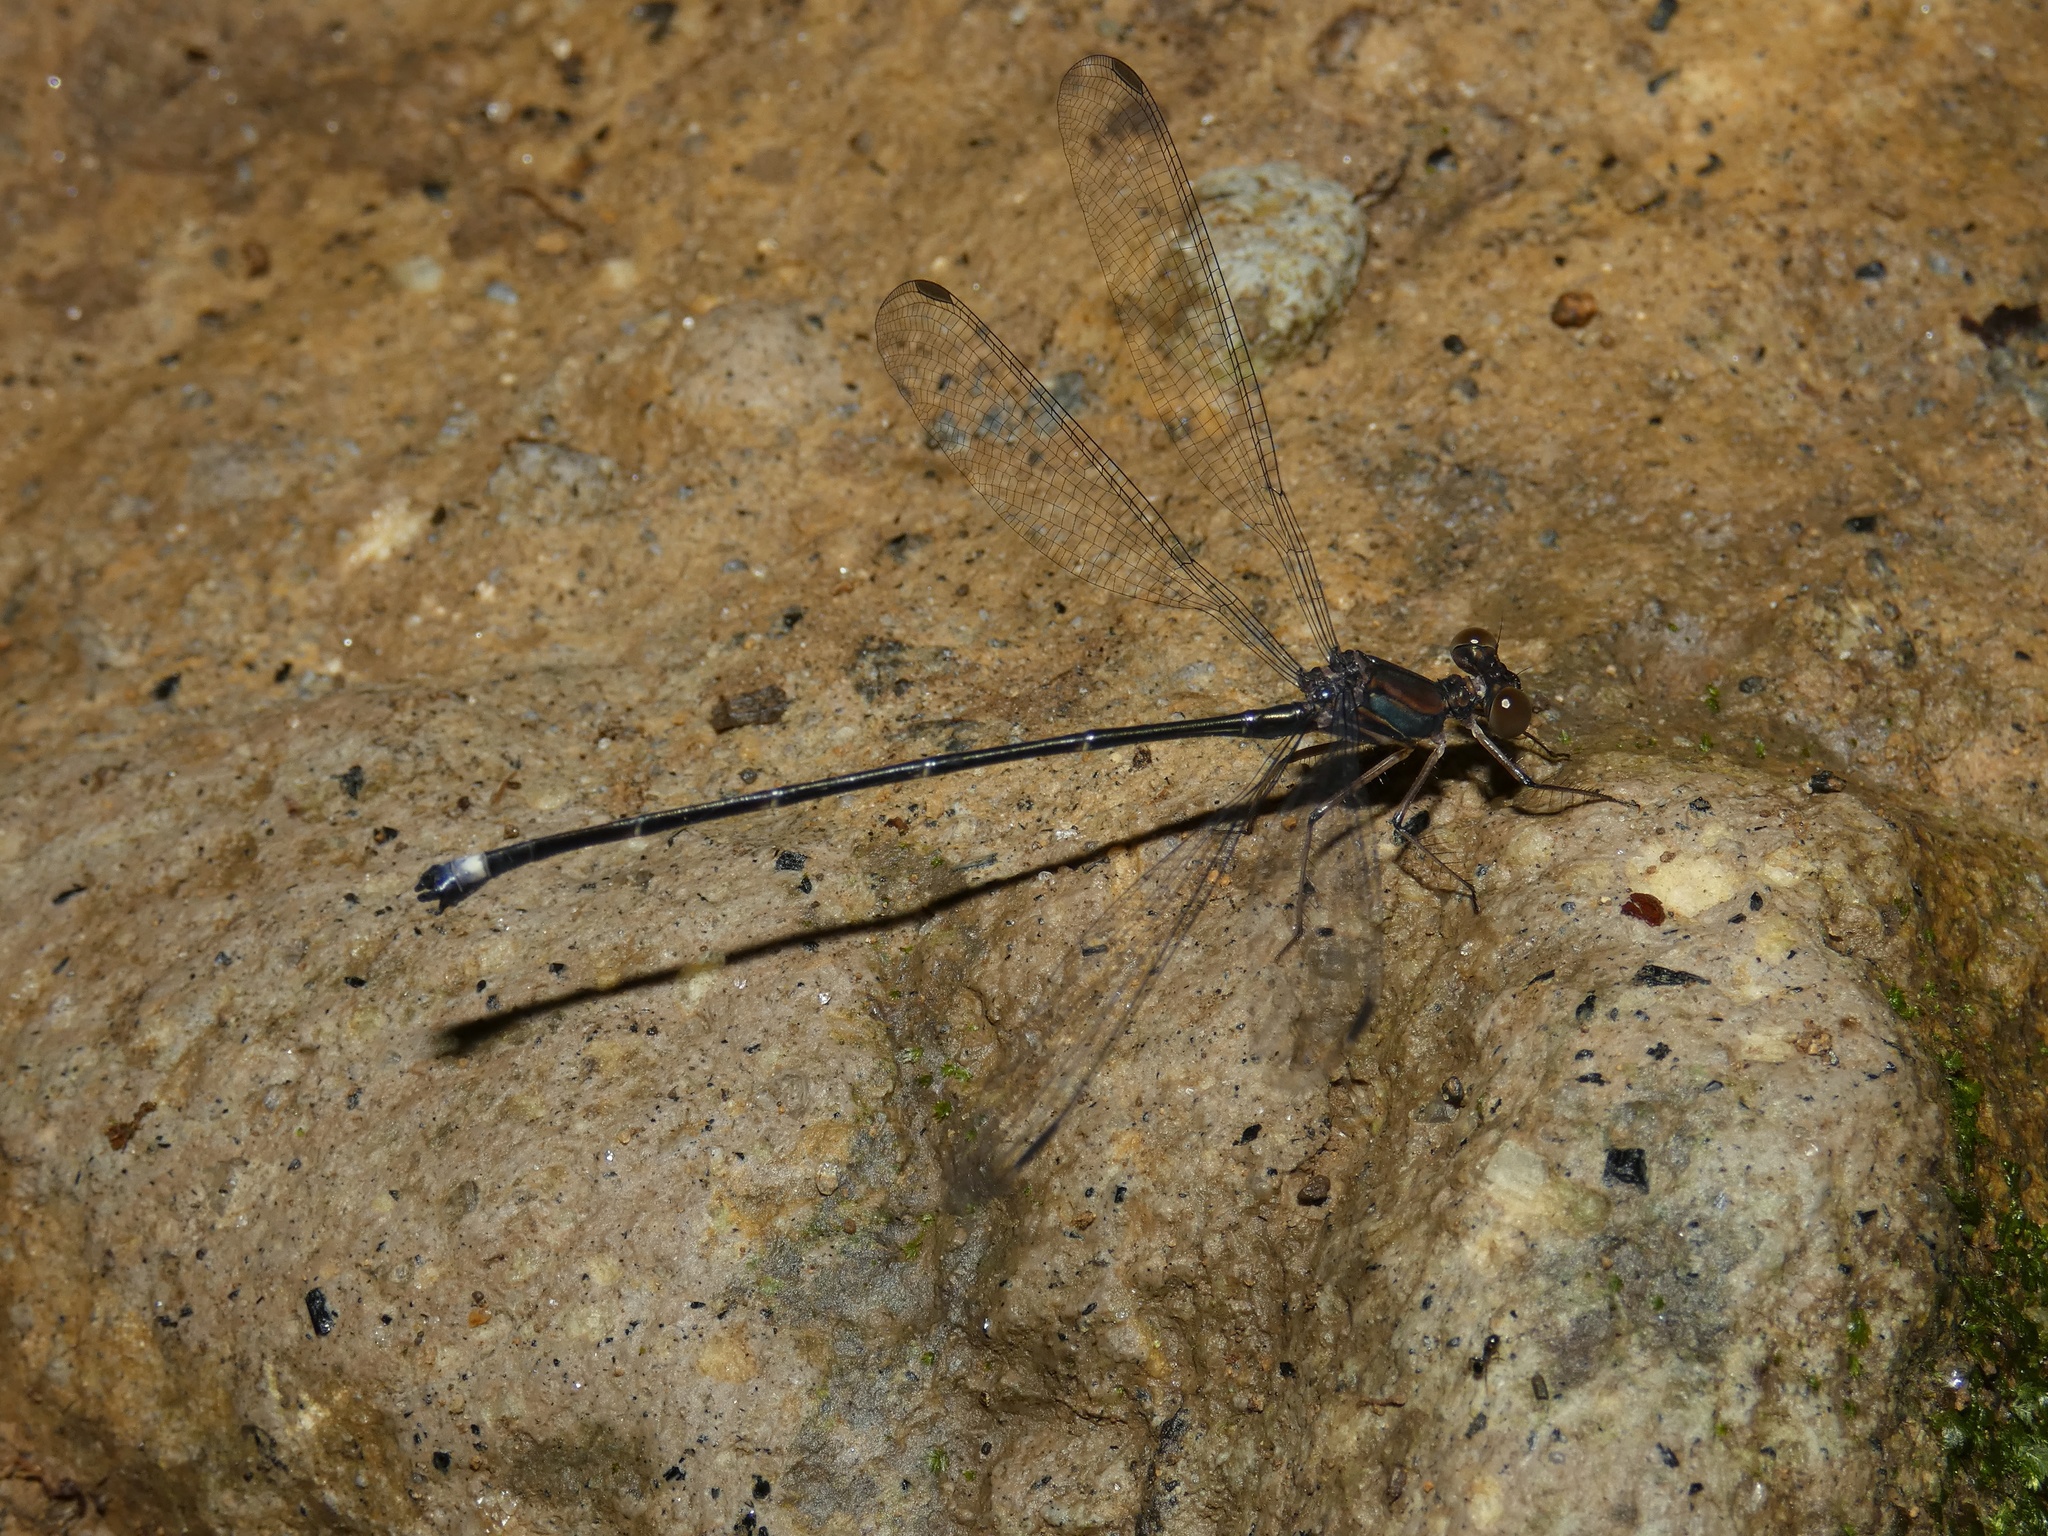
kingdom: Animalia
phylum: Arthropoda
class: Insecta
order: Odonata
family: Philogeniidae
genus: Philogenia
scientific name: Philogenia leonora
